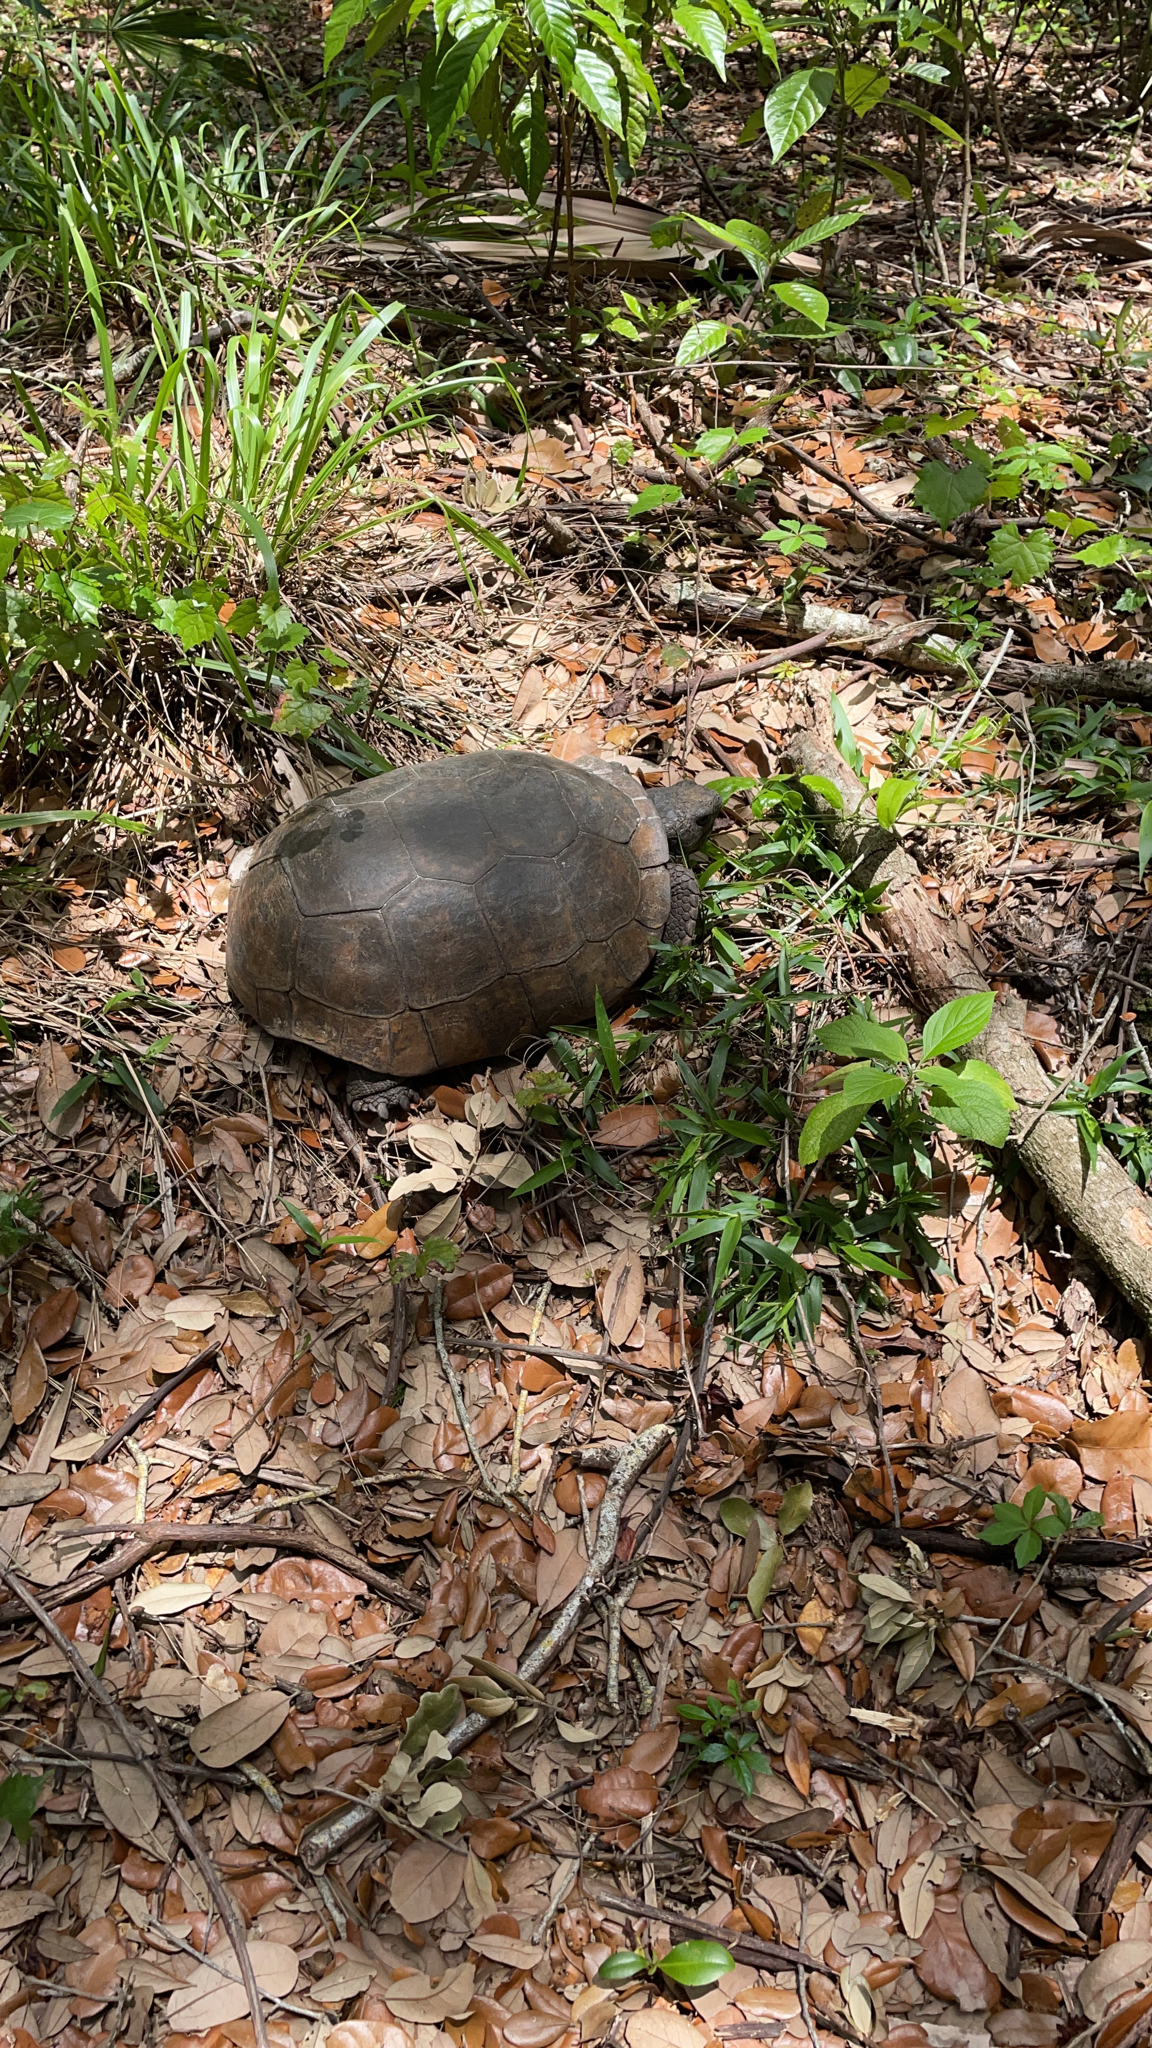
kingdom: Animalia
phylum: Chordata
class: Testudines
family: Testudinidae
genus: Gopherus
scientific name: Gopherus polyphemus
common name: Florida gopher tortoise
